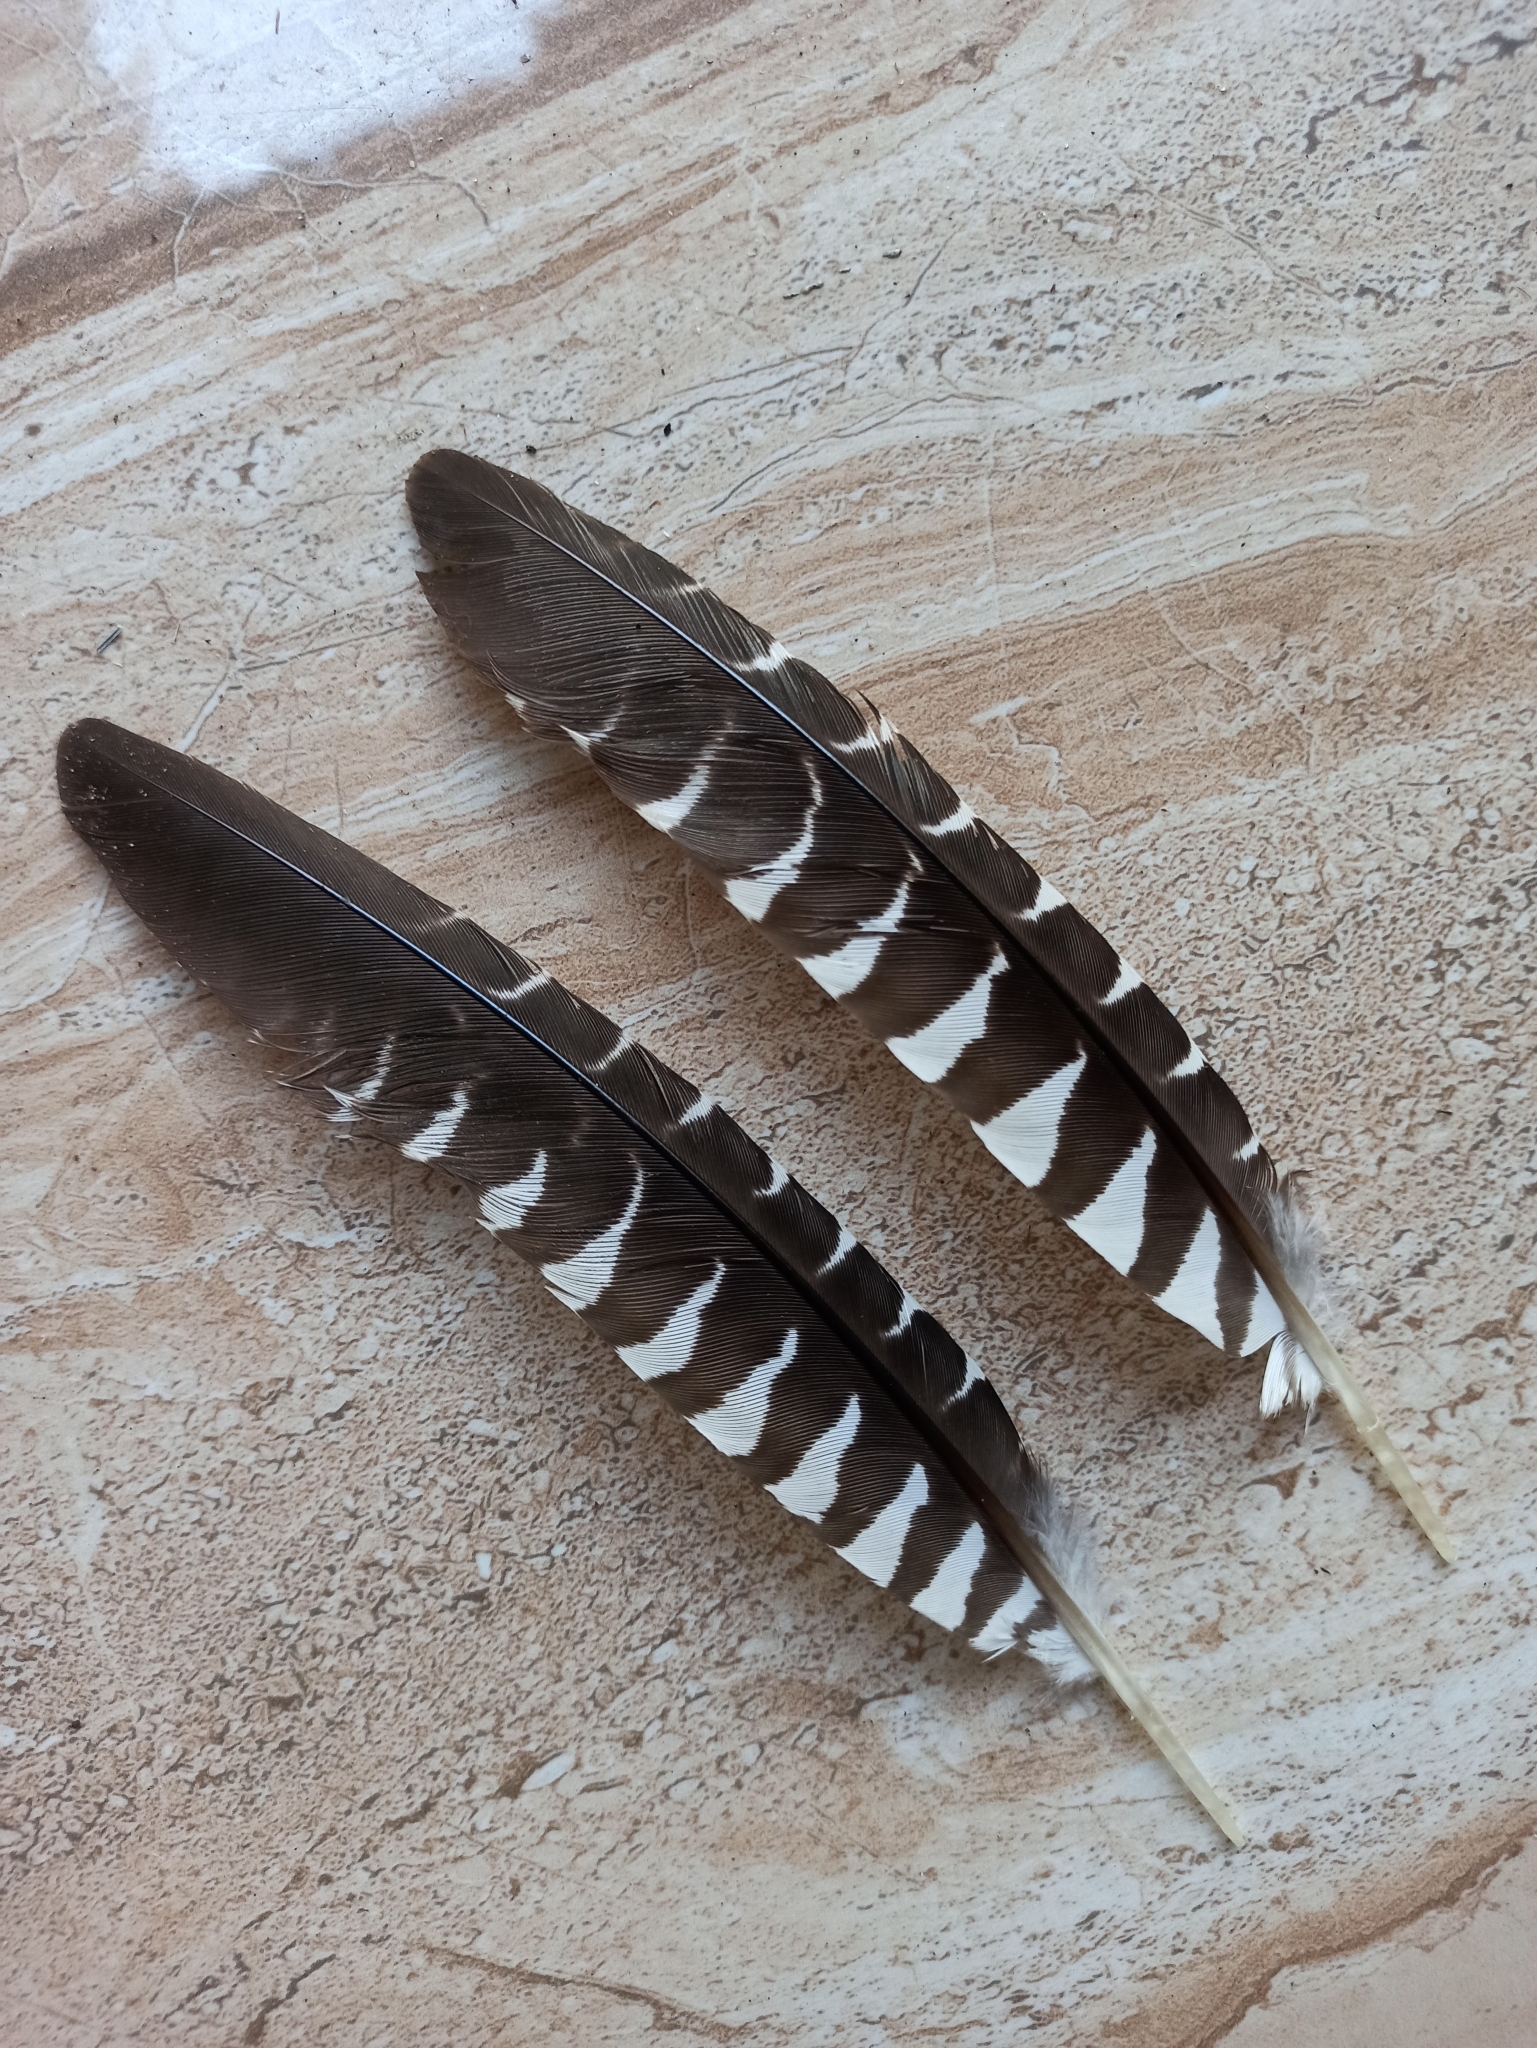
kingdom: Animalia
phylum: Chordata
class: Aves
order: Cuculiformes
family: Cuculidae
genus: Eudynamys
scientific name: Eudynamys scolopaceus
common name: Asian koel
